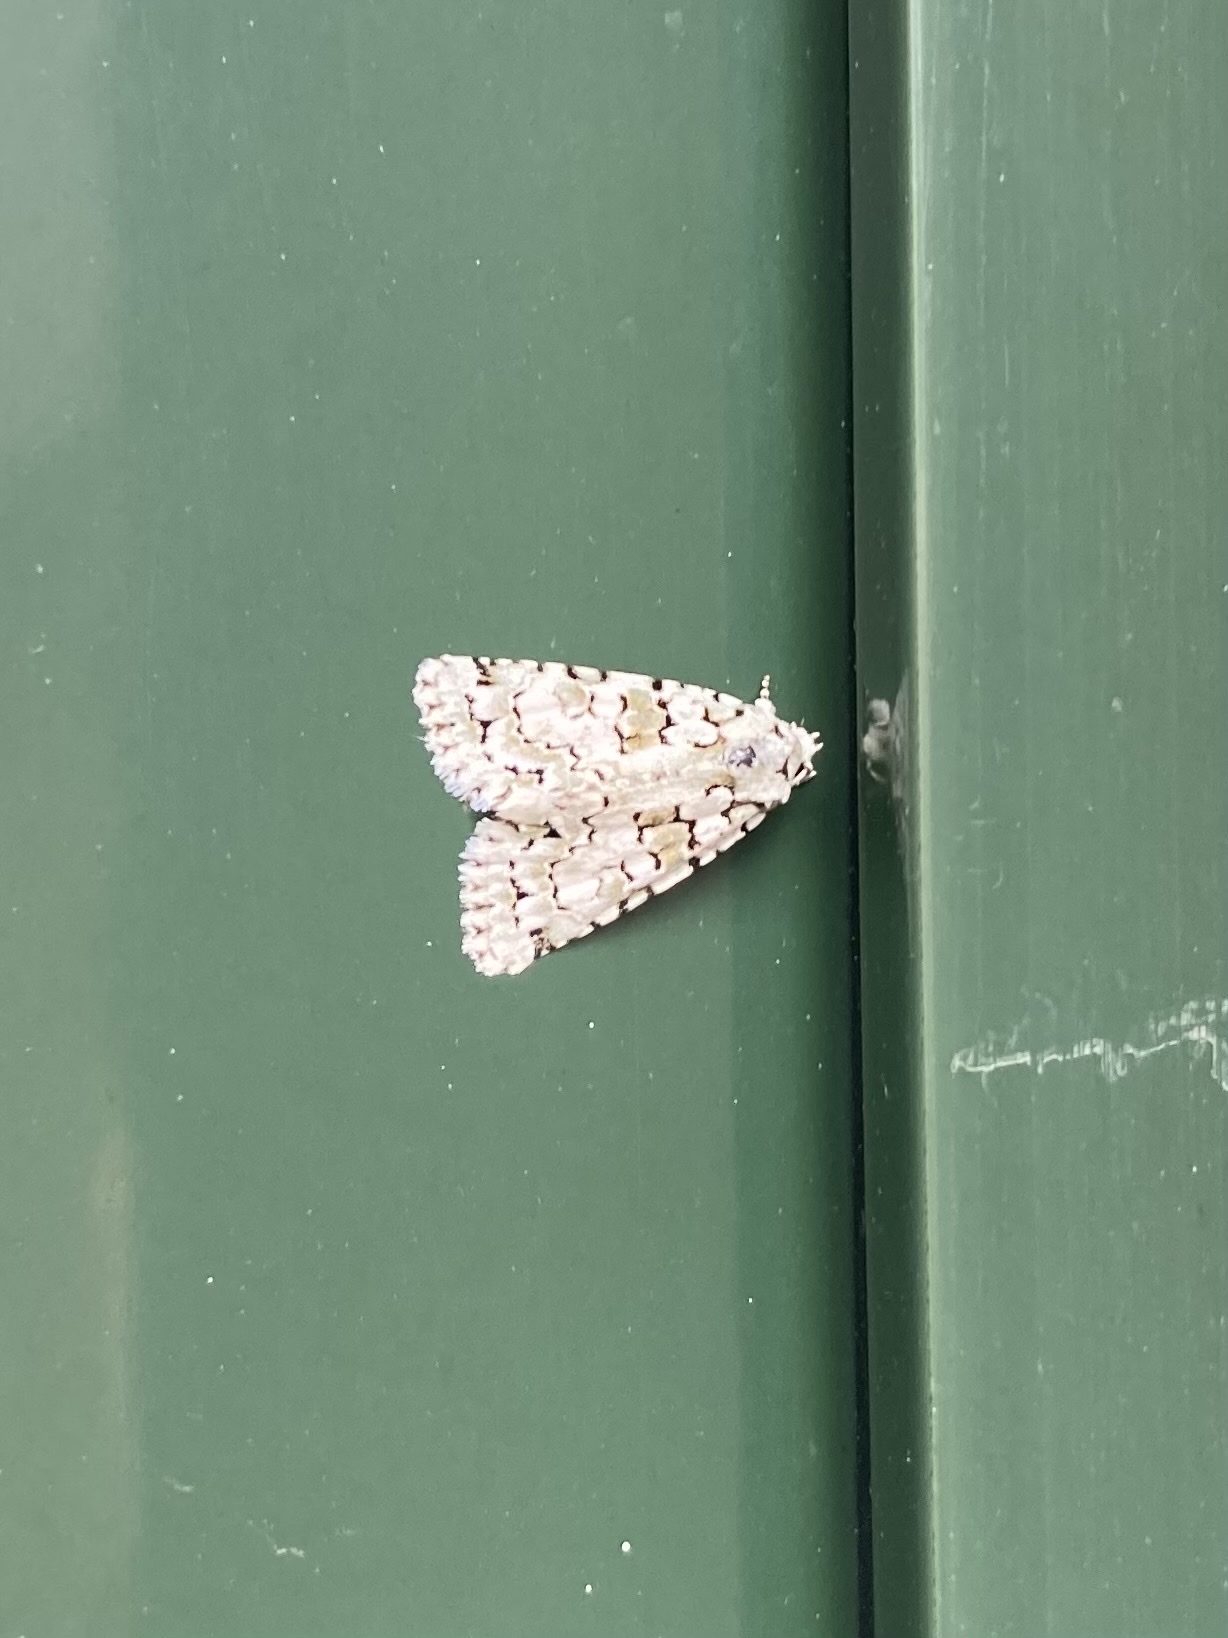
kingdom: Animalia
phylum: Arthropoda
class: Insecta
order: Lepidoptera
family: Noctuidae
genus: Nyctobrya
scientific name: Nyctobrya muralis
